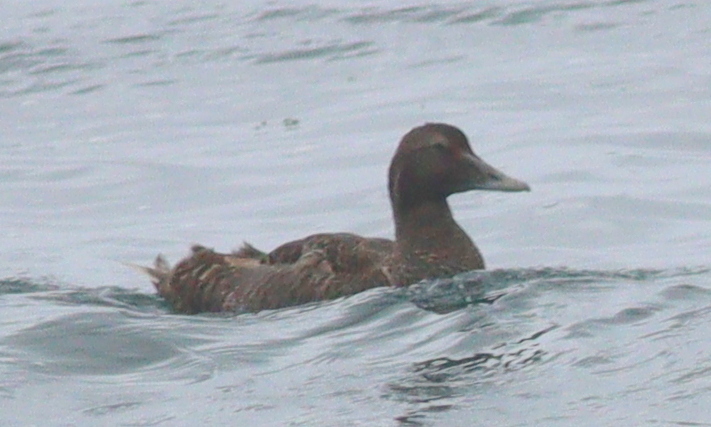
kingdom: Animalia
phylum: Chordata
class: Aves
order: Anseriformes
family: Anatidae
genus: Somateria
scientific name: Somateria mollissima
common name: Common eider
